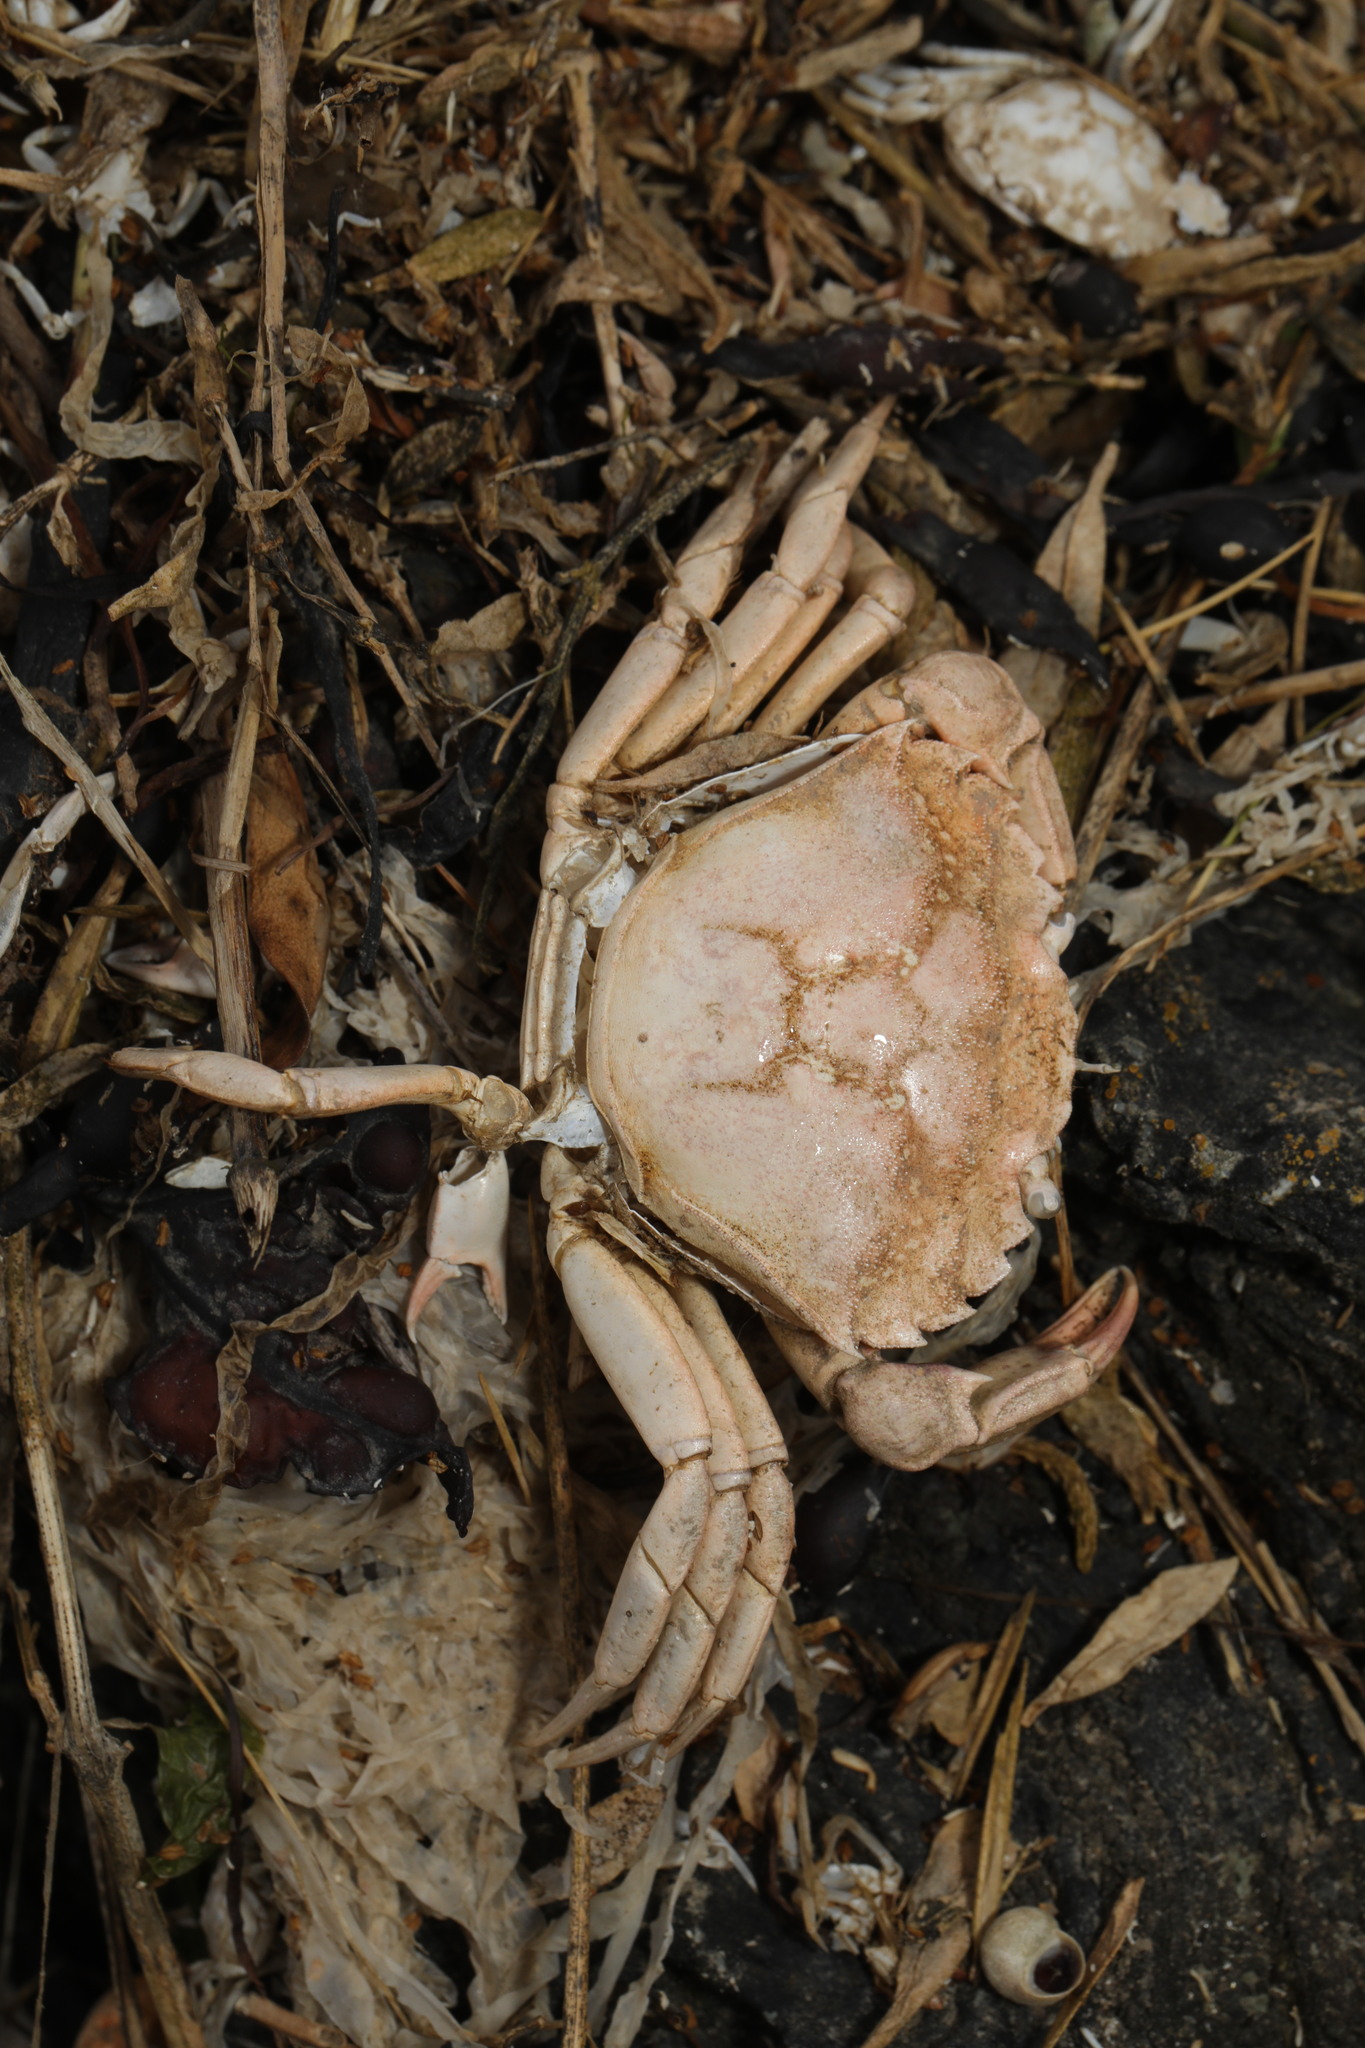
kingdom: Animalia
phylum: Arthropoda
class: Malacostraca
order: Decapoda
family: Carcinidae
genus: Carcinus
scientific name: Carcinus maenas
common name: European green crab
